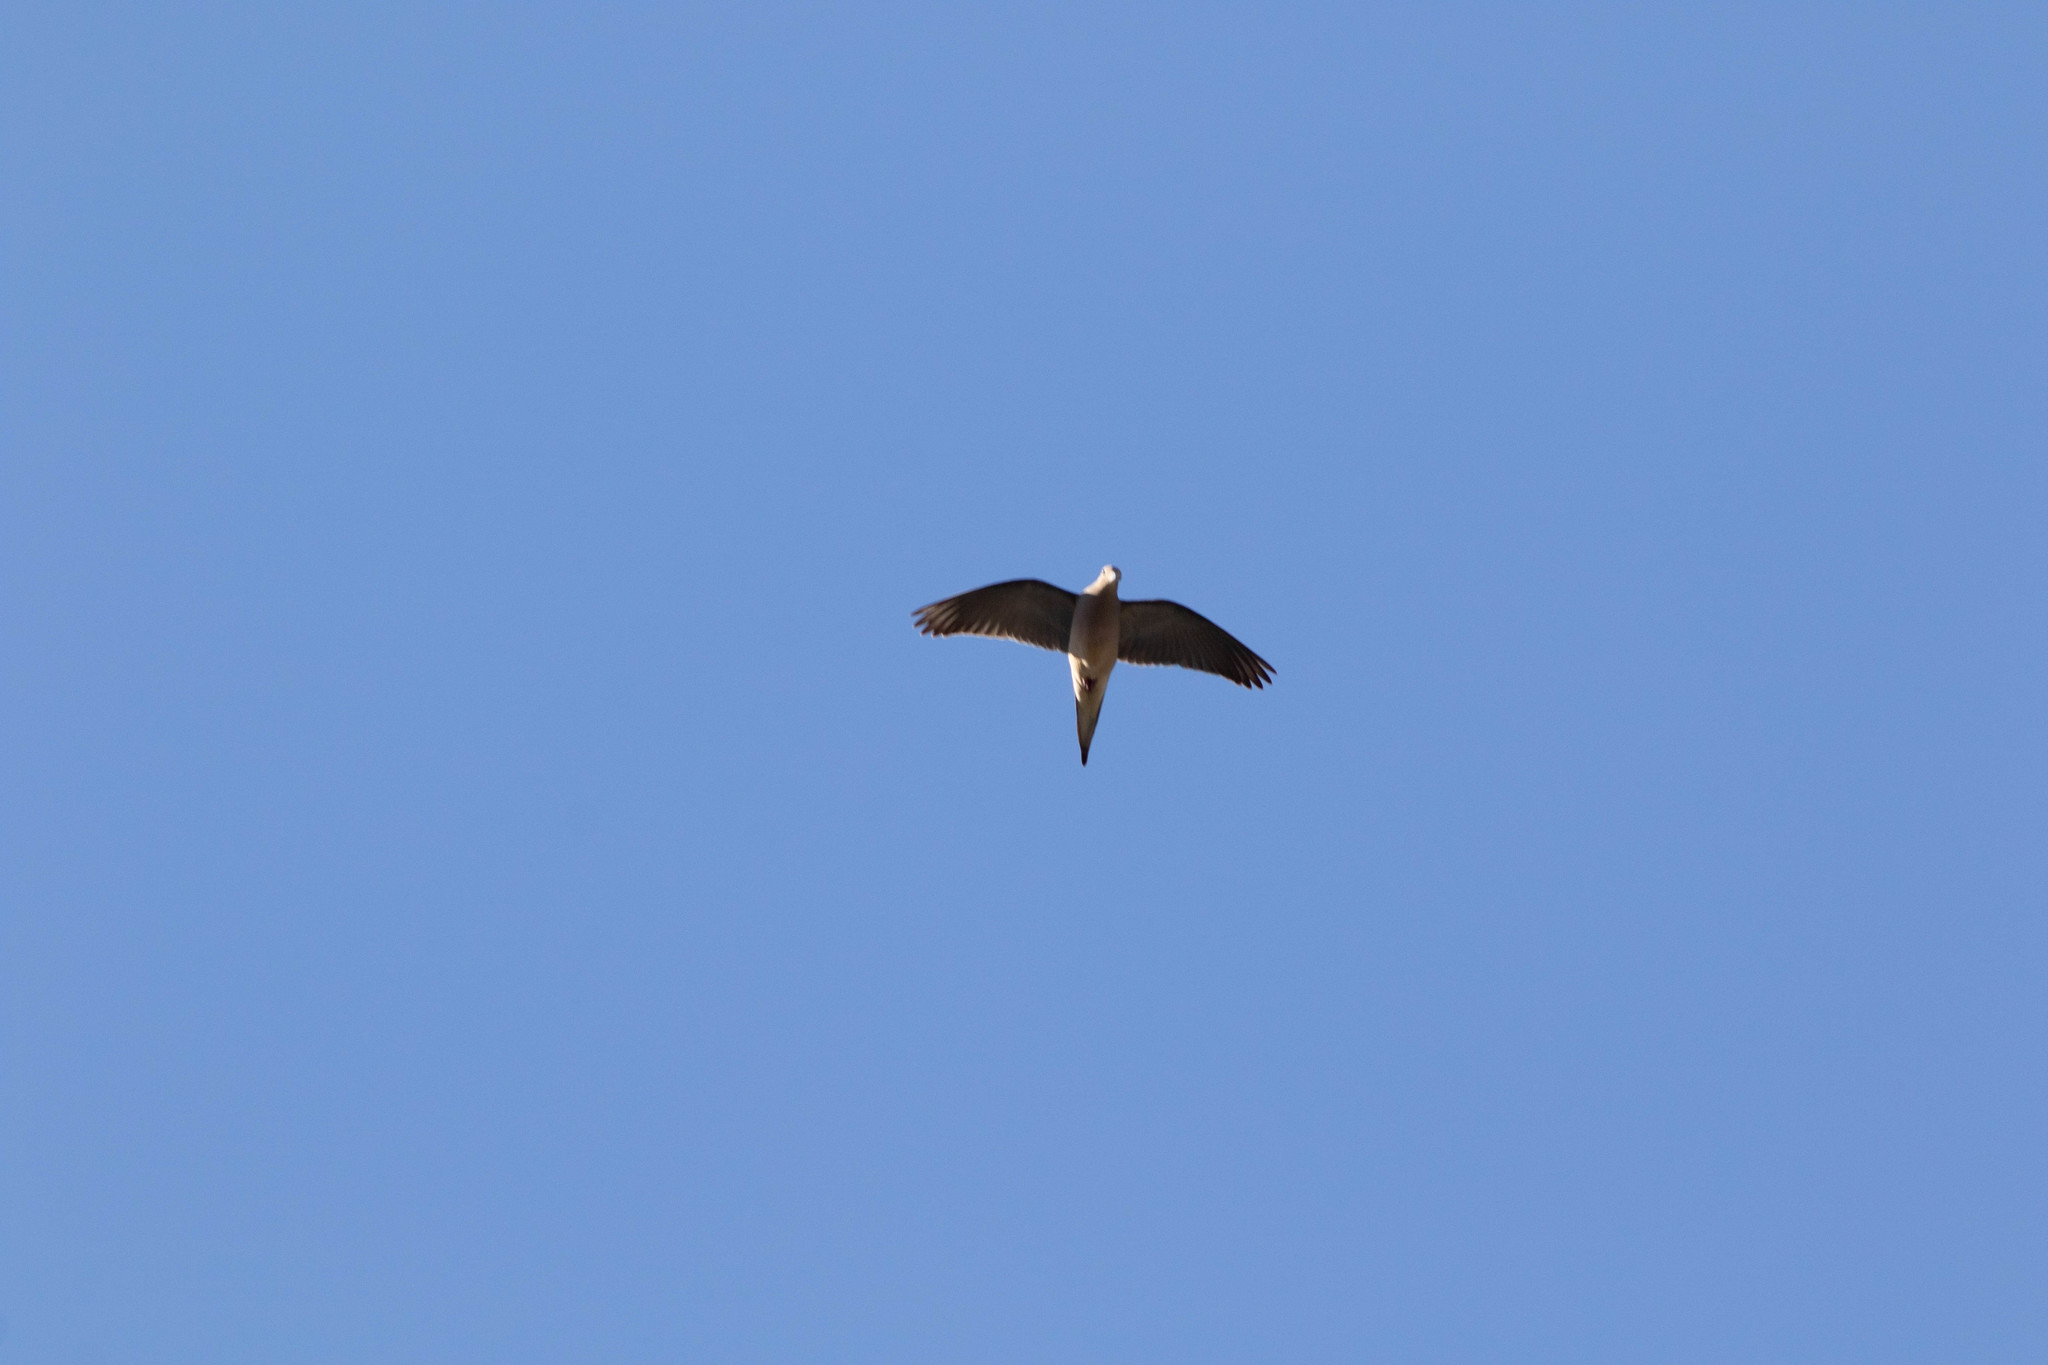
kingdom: Animalia
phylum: Chordata
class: Aves
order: Columbiformes
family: Columbidae
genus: Zenaida
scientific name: Zenaida macroura
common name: Mourning dove
